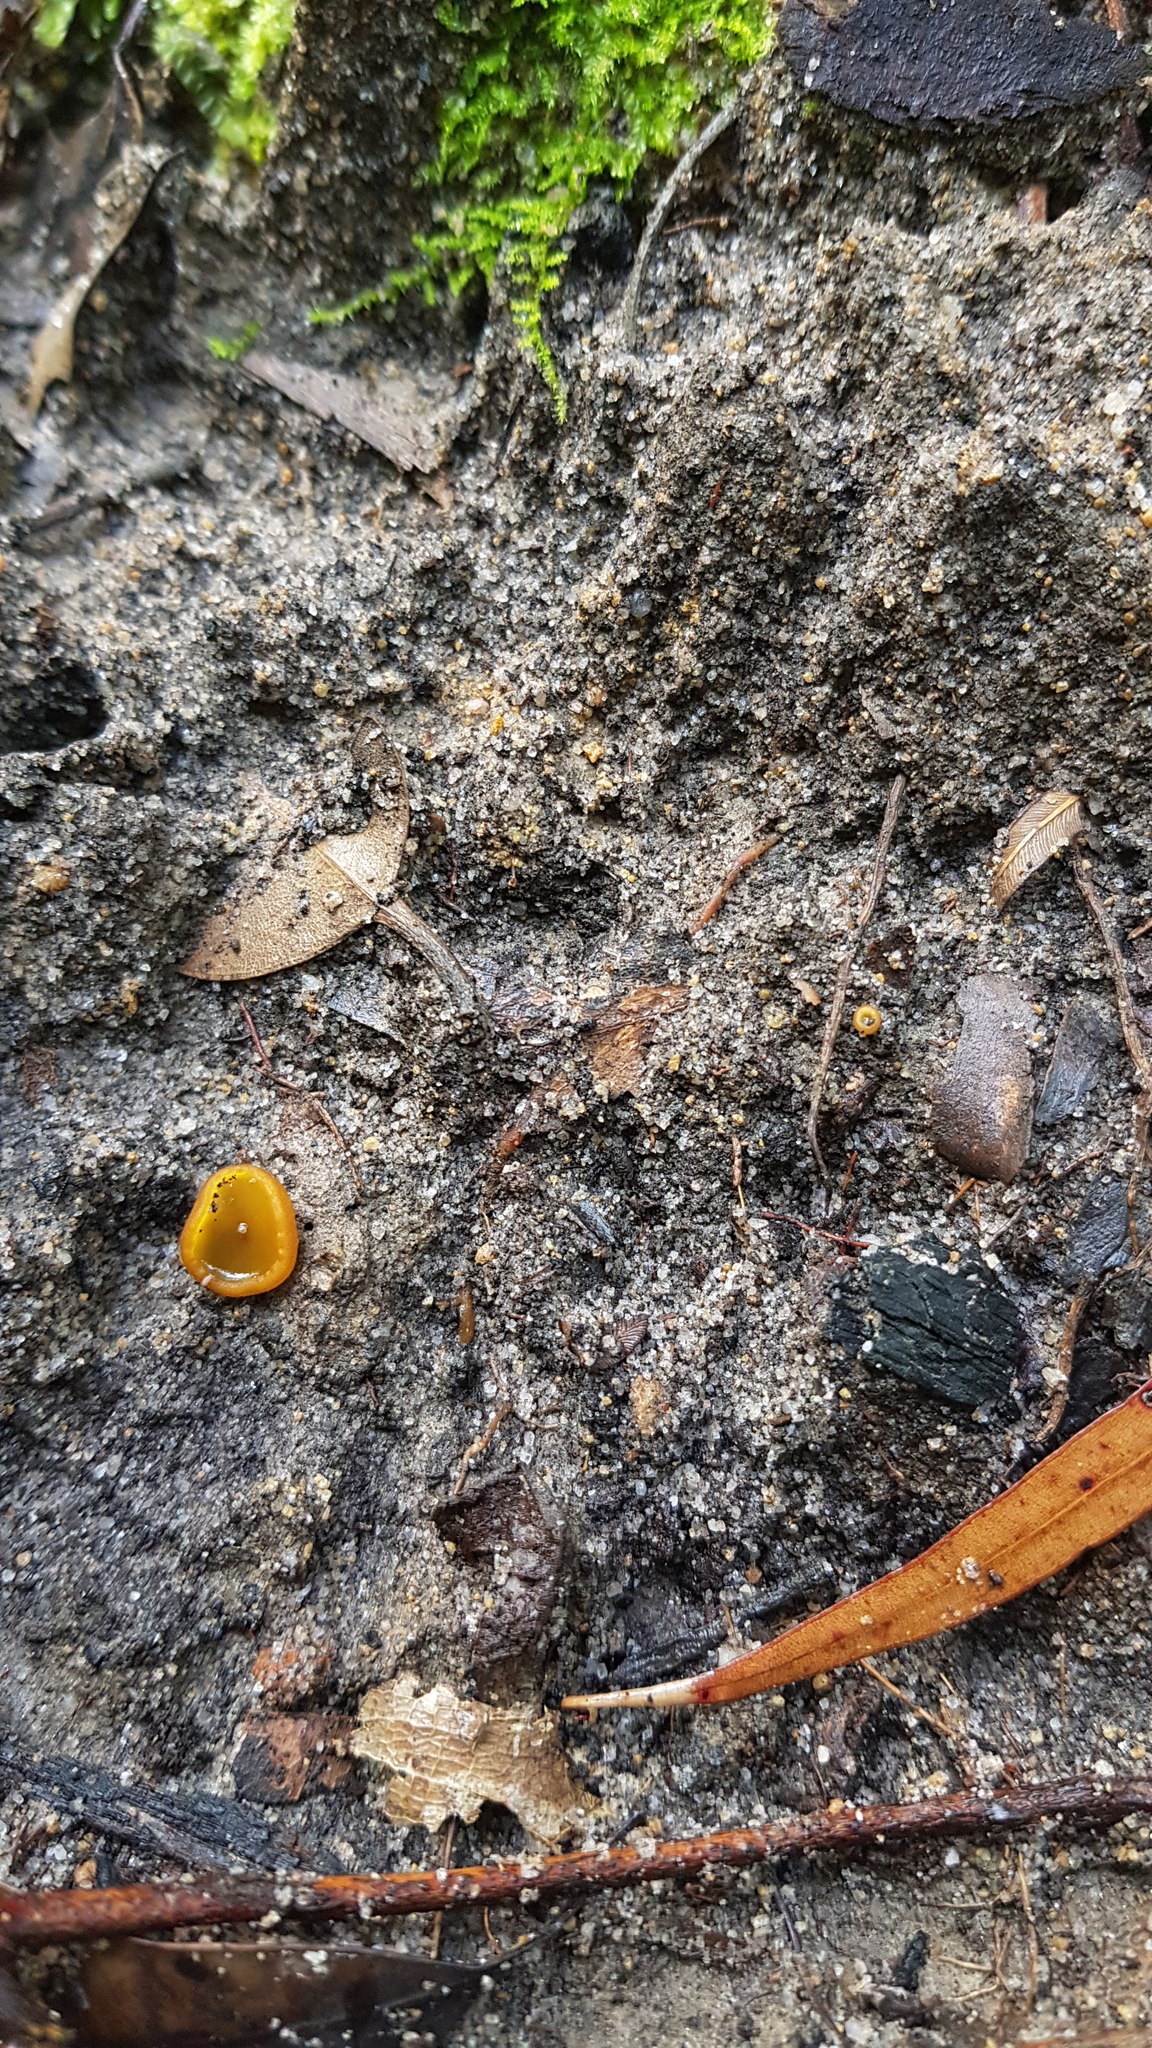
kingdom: Fungi
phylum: Ascomycota
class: Pezizomycetes
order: Pezizales
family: Pyronemataceae
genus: Aleurina
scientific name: Aleurina ferruginea
